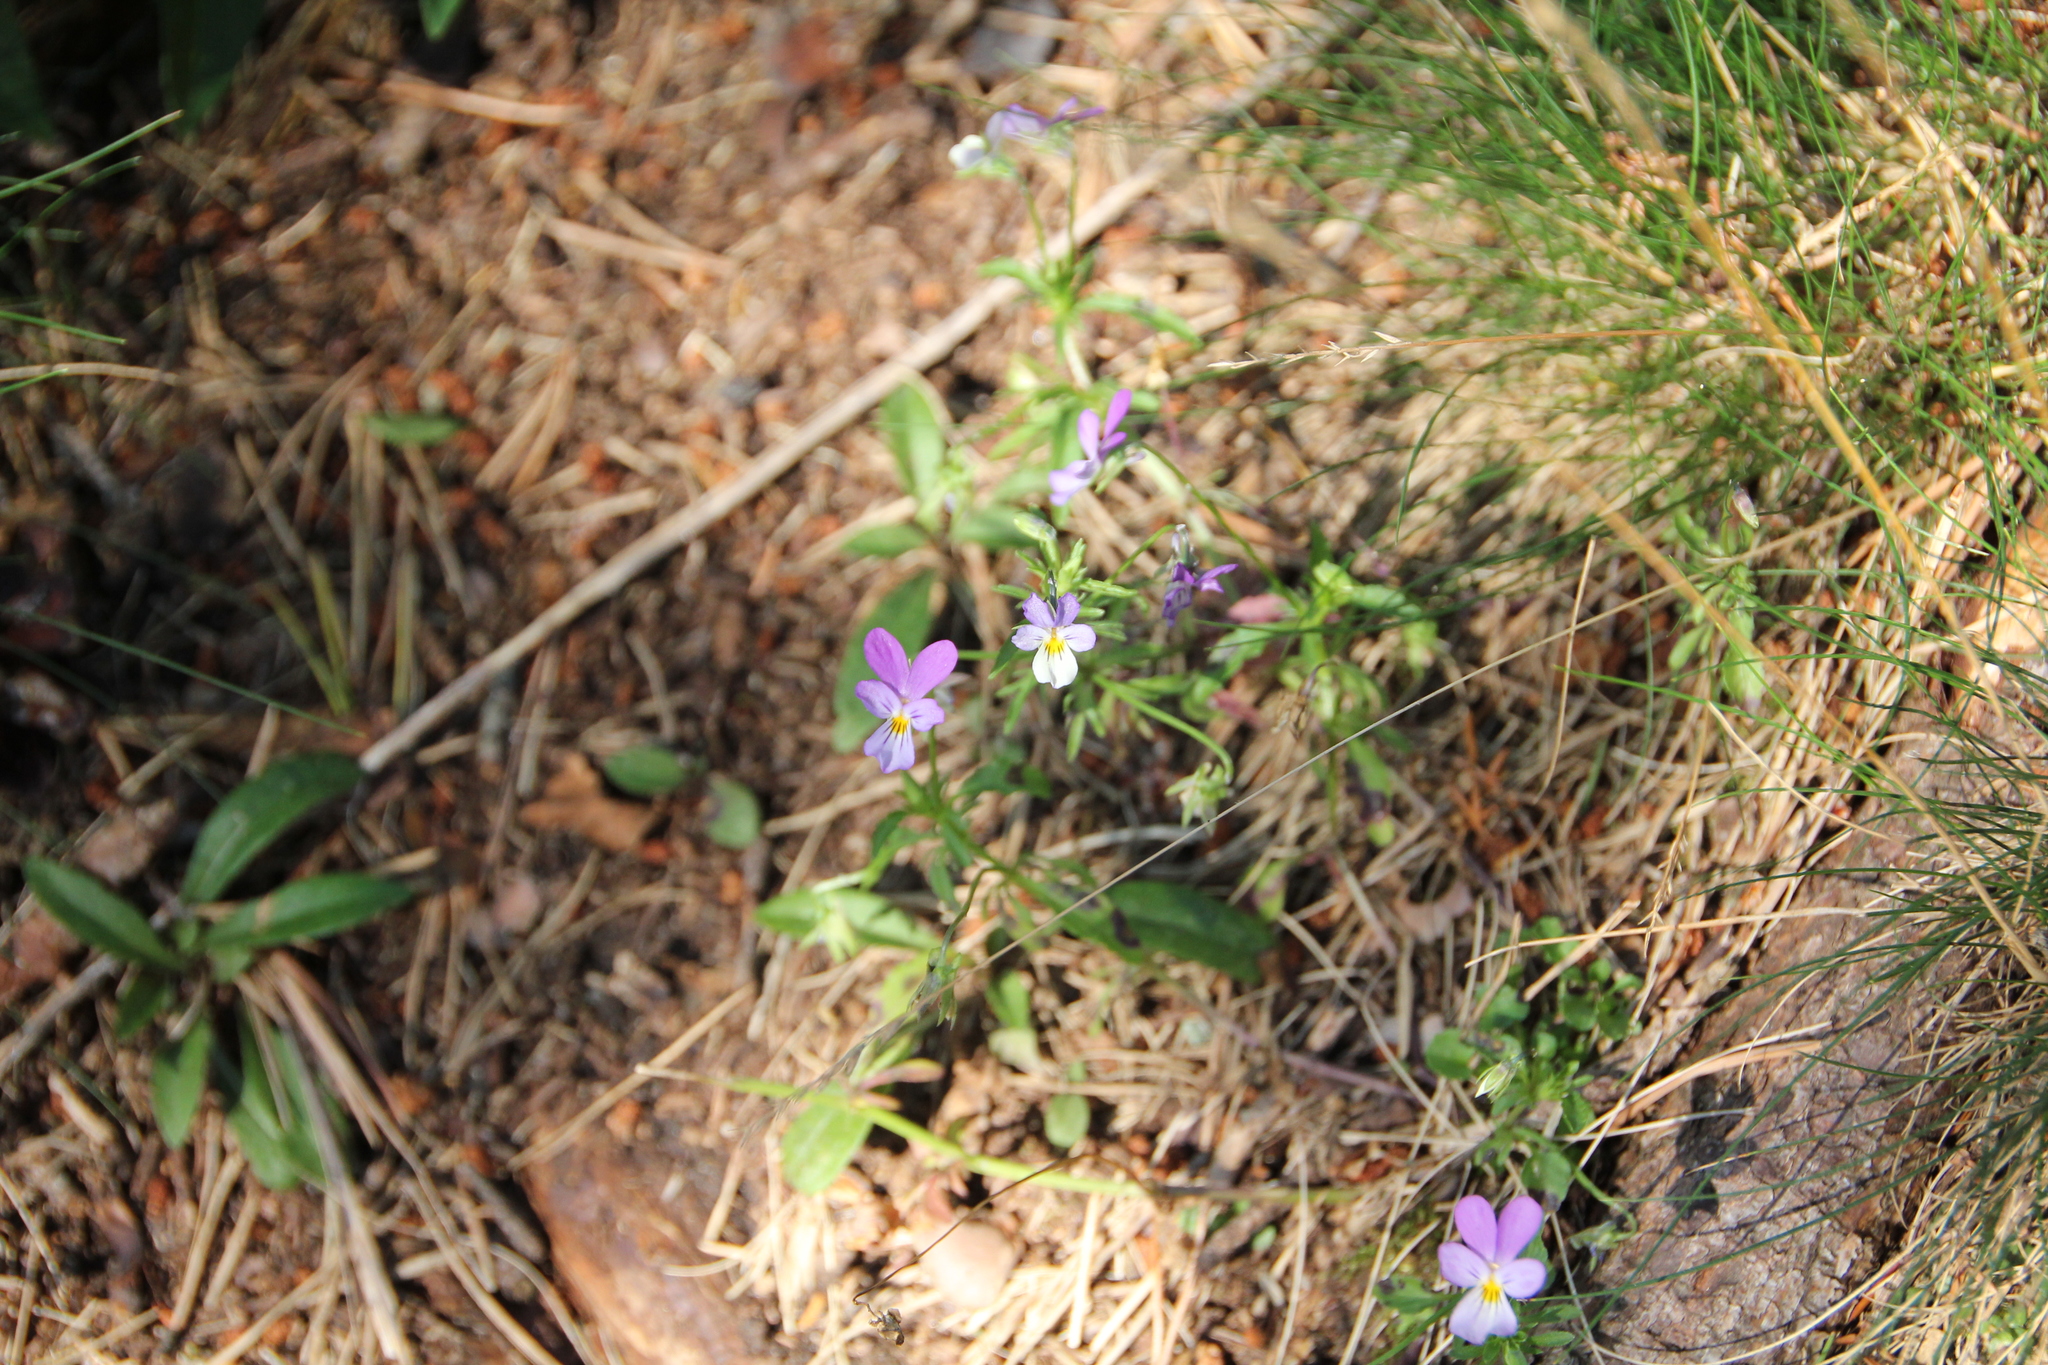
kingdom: Plantae
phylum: Tracheophyta
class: Magnoliopsida
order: Malpighiales
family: Violaceae
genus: Viola
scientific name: Viola tricolor
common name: Pansy
